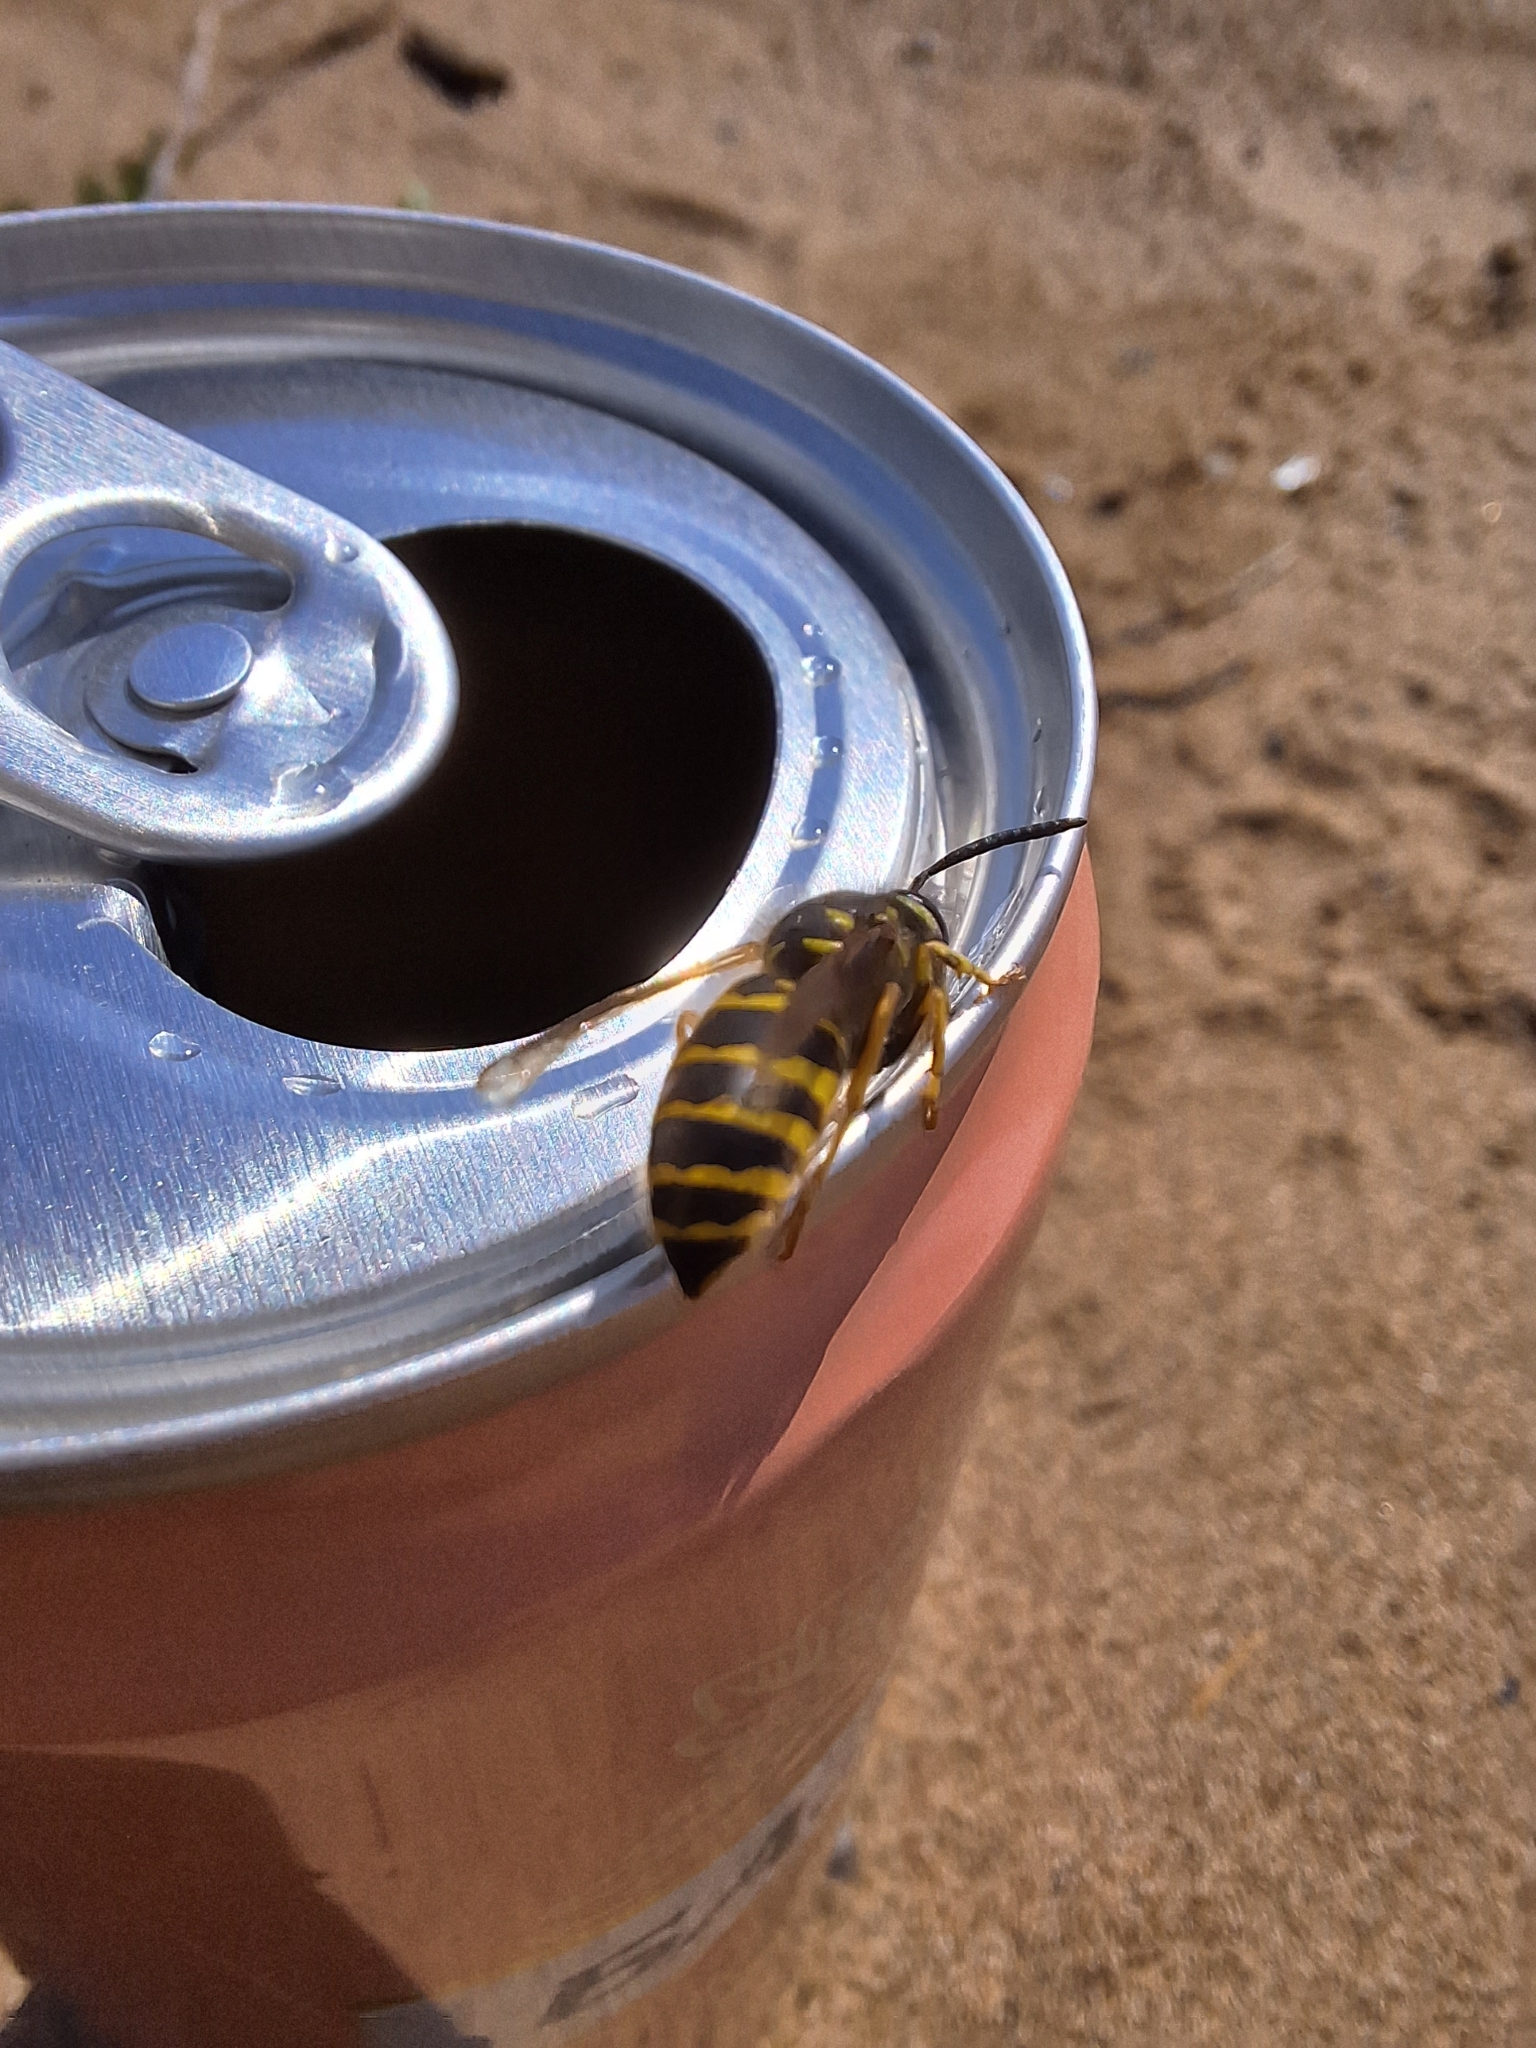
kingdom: Animalia
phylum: Arthropoda
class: Insecta
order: Hymenoptera
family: Vespidae
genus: Vespula
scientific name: Vespula vulgaris
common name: Common wasp
